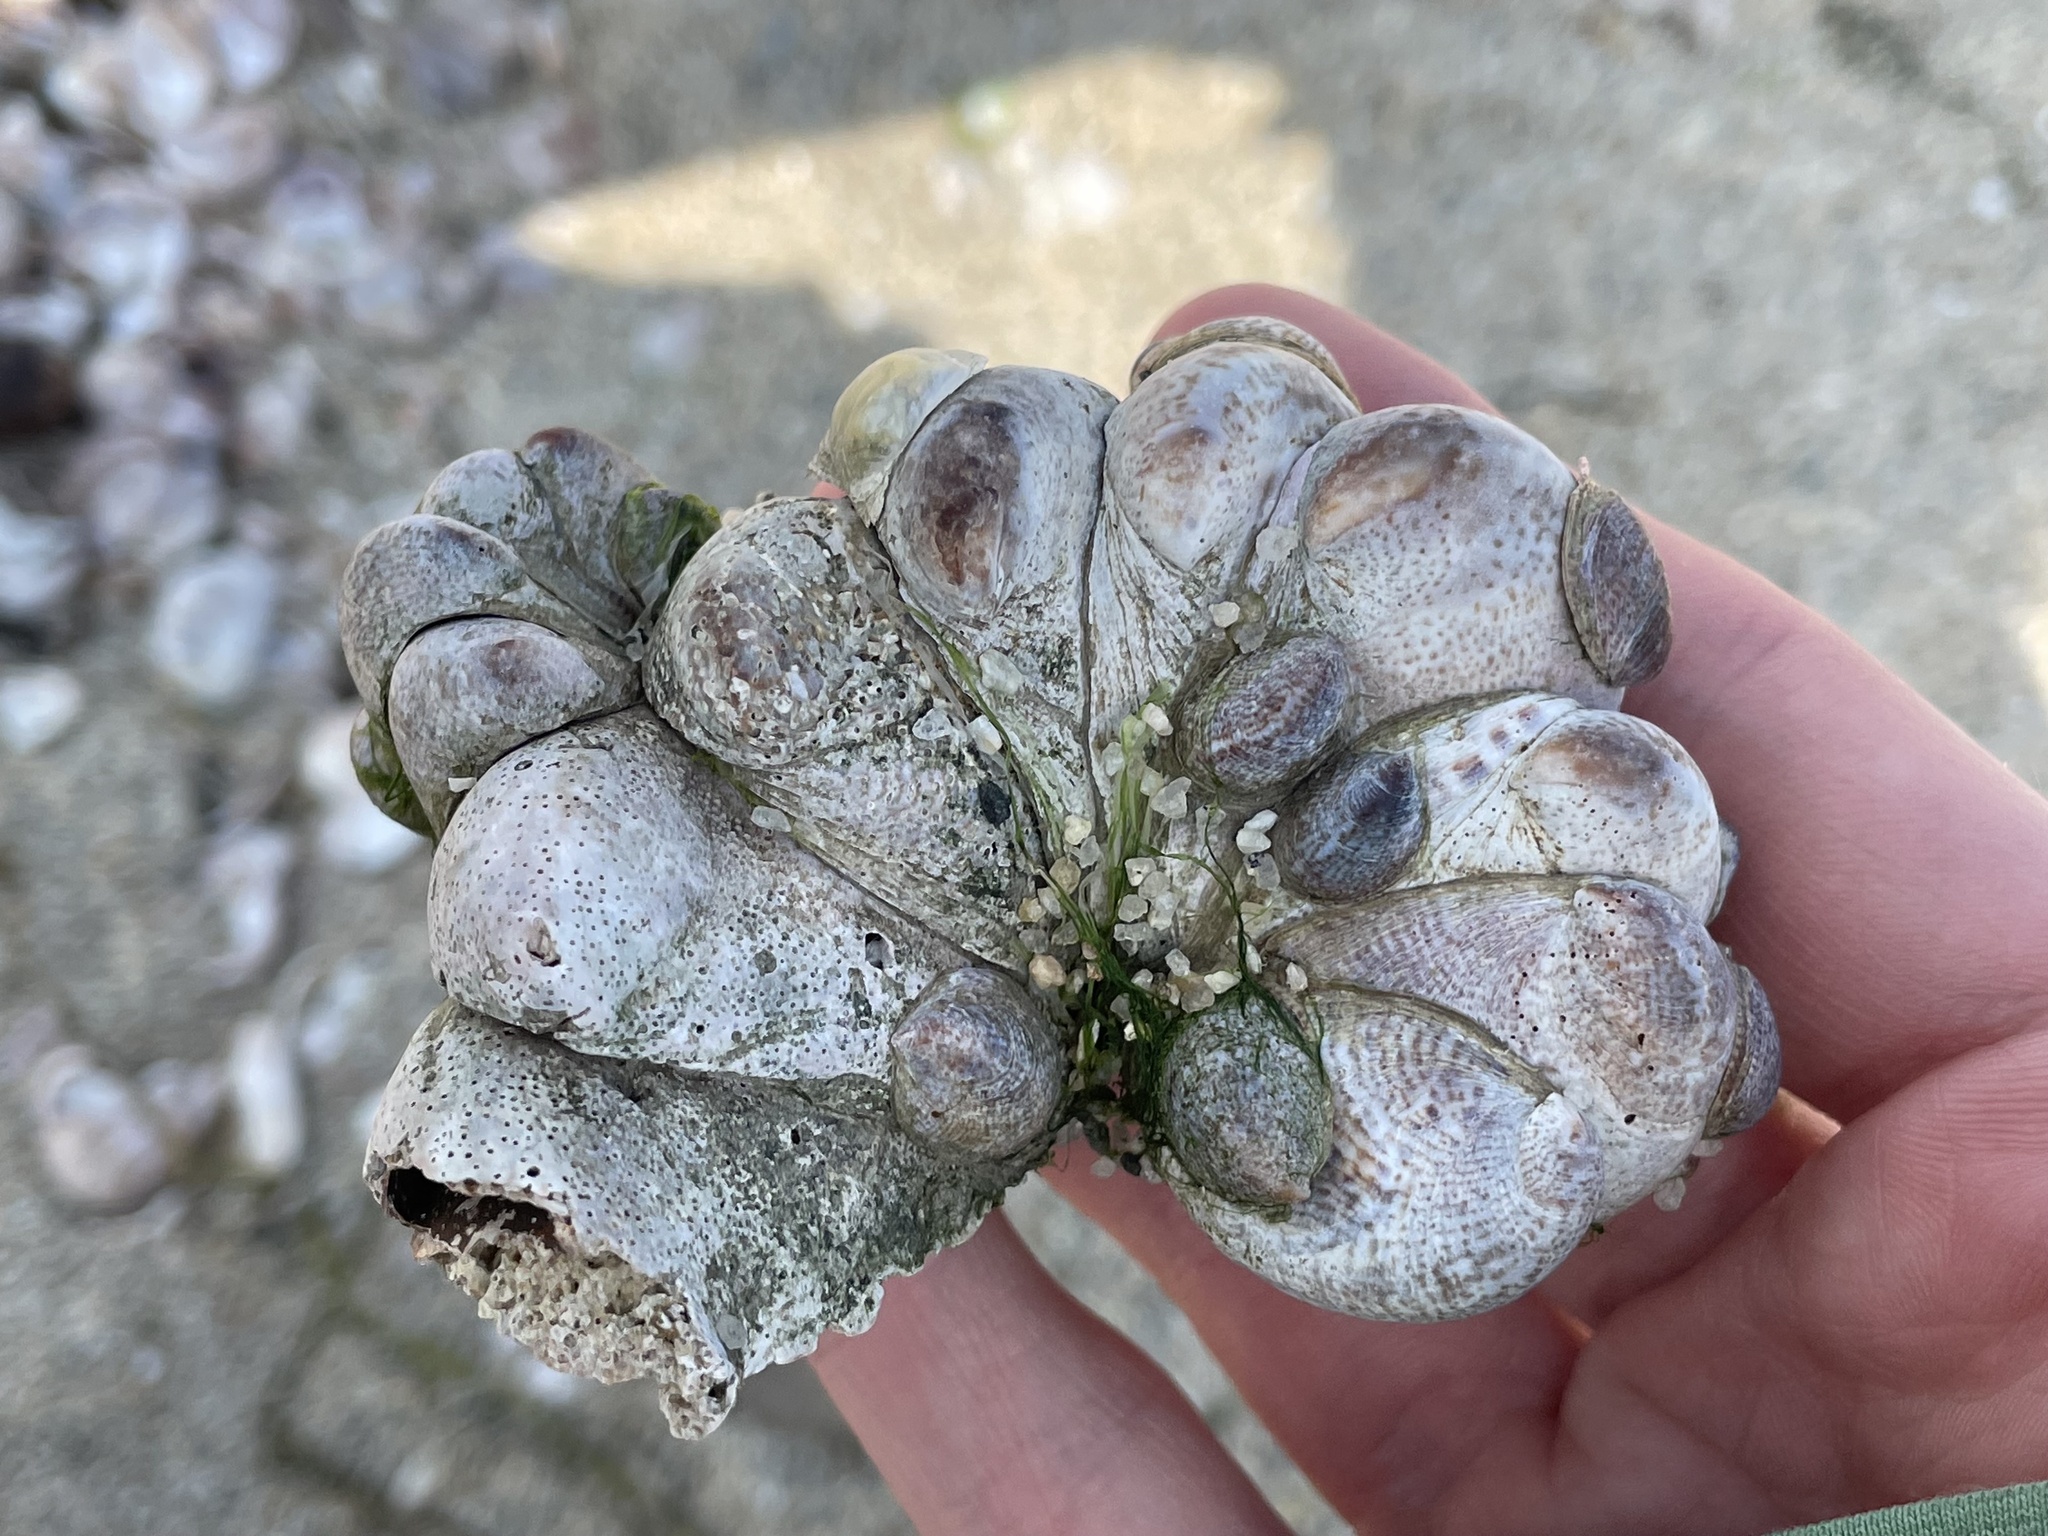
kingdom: Animalia
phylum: Mollusca
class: Gastropoda
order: Littorinimorpha
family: Calyptraeidae
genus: Crepidula
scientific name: Crepidula fornicata
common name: Slipper limpet
